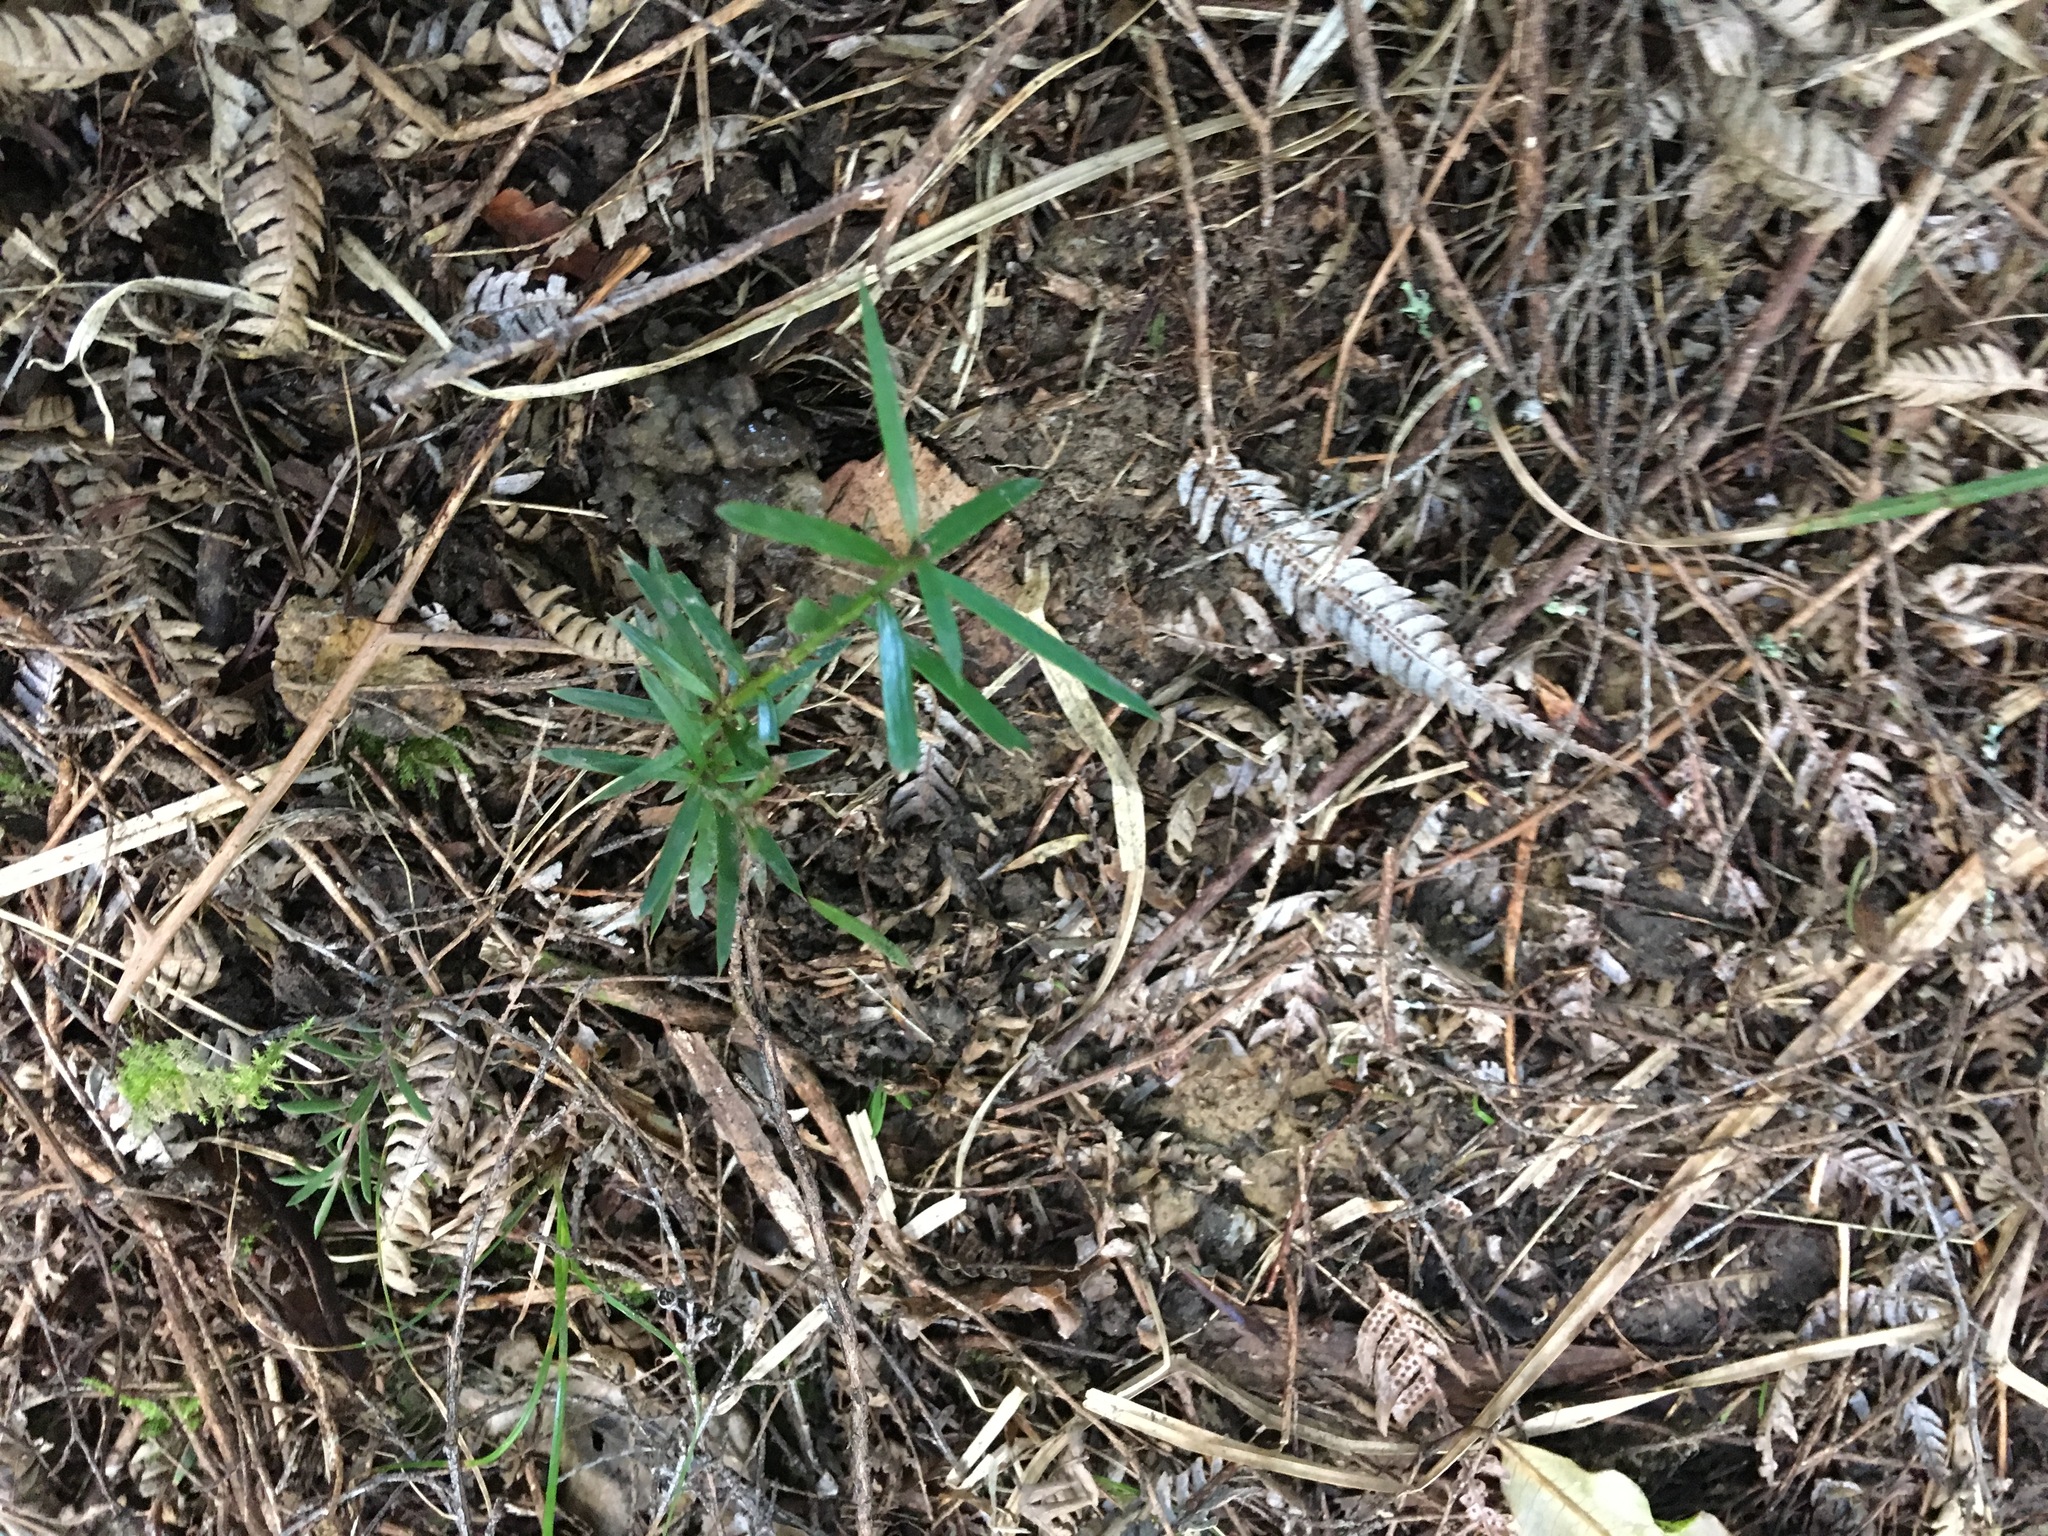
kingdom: Plantae
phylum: Tracheophyta
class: Pinopsida
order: Pinales
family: Podocarpaceae
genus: Podocarpus
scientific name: Podocarpus totara
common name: Totara
